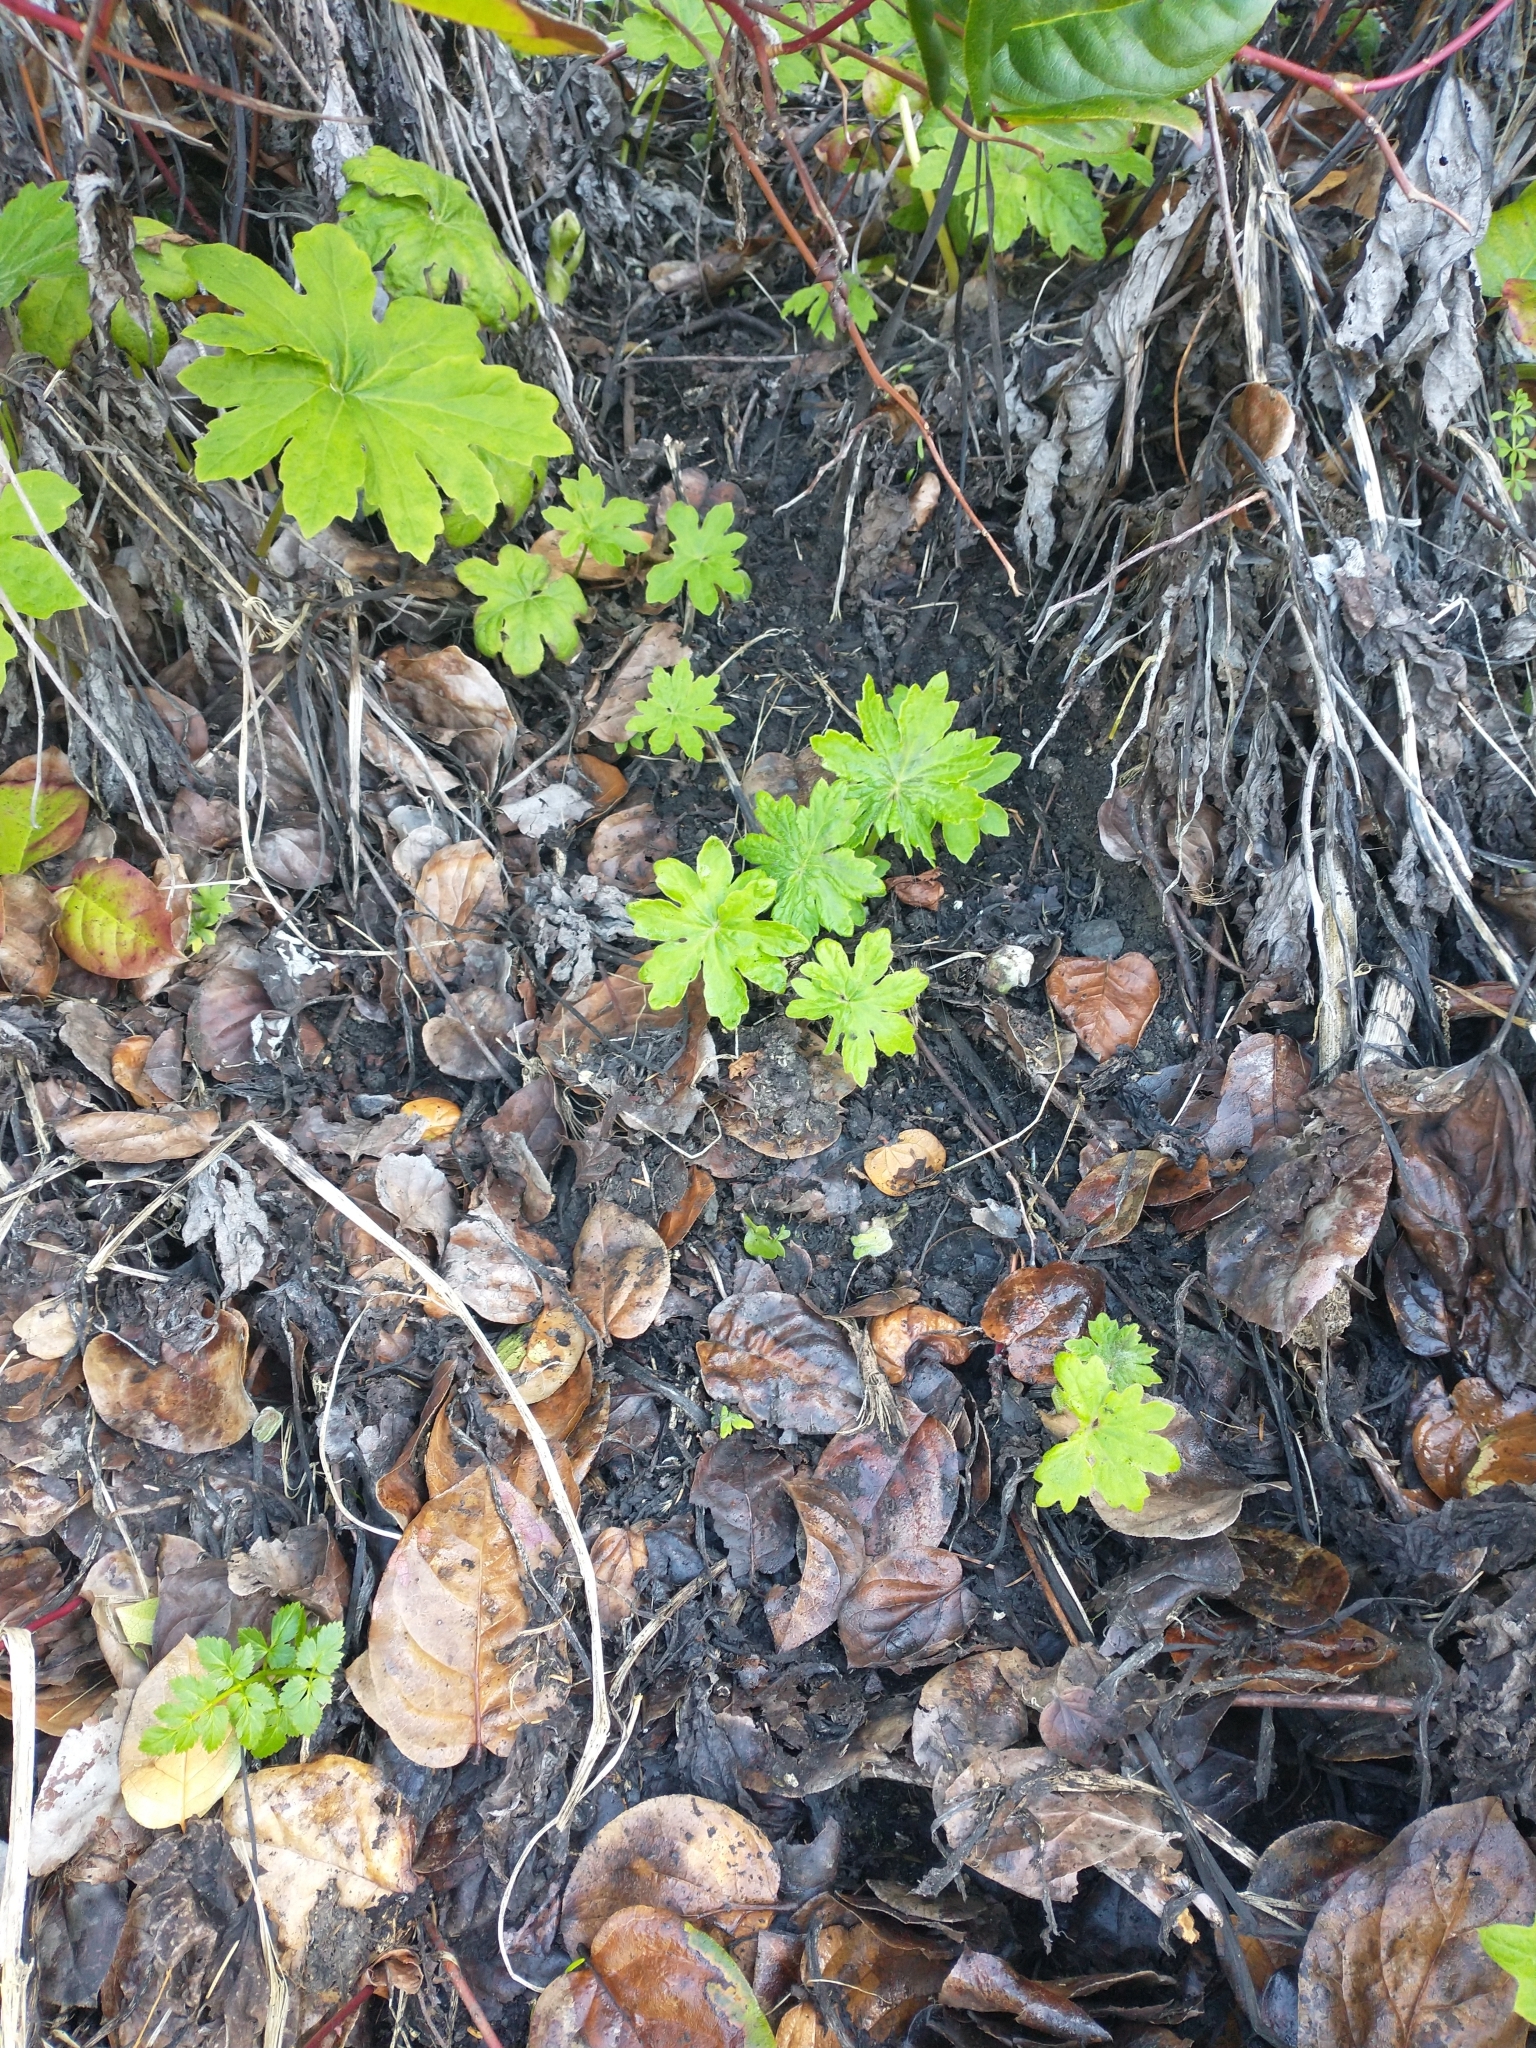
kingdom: Plantae
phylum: Tracheophyta
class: Magnoliopsida
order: Asterales
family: Asteraceae
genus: Petasites
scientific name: Petasites frigidus
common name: Arctic butterbur
